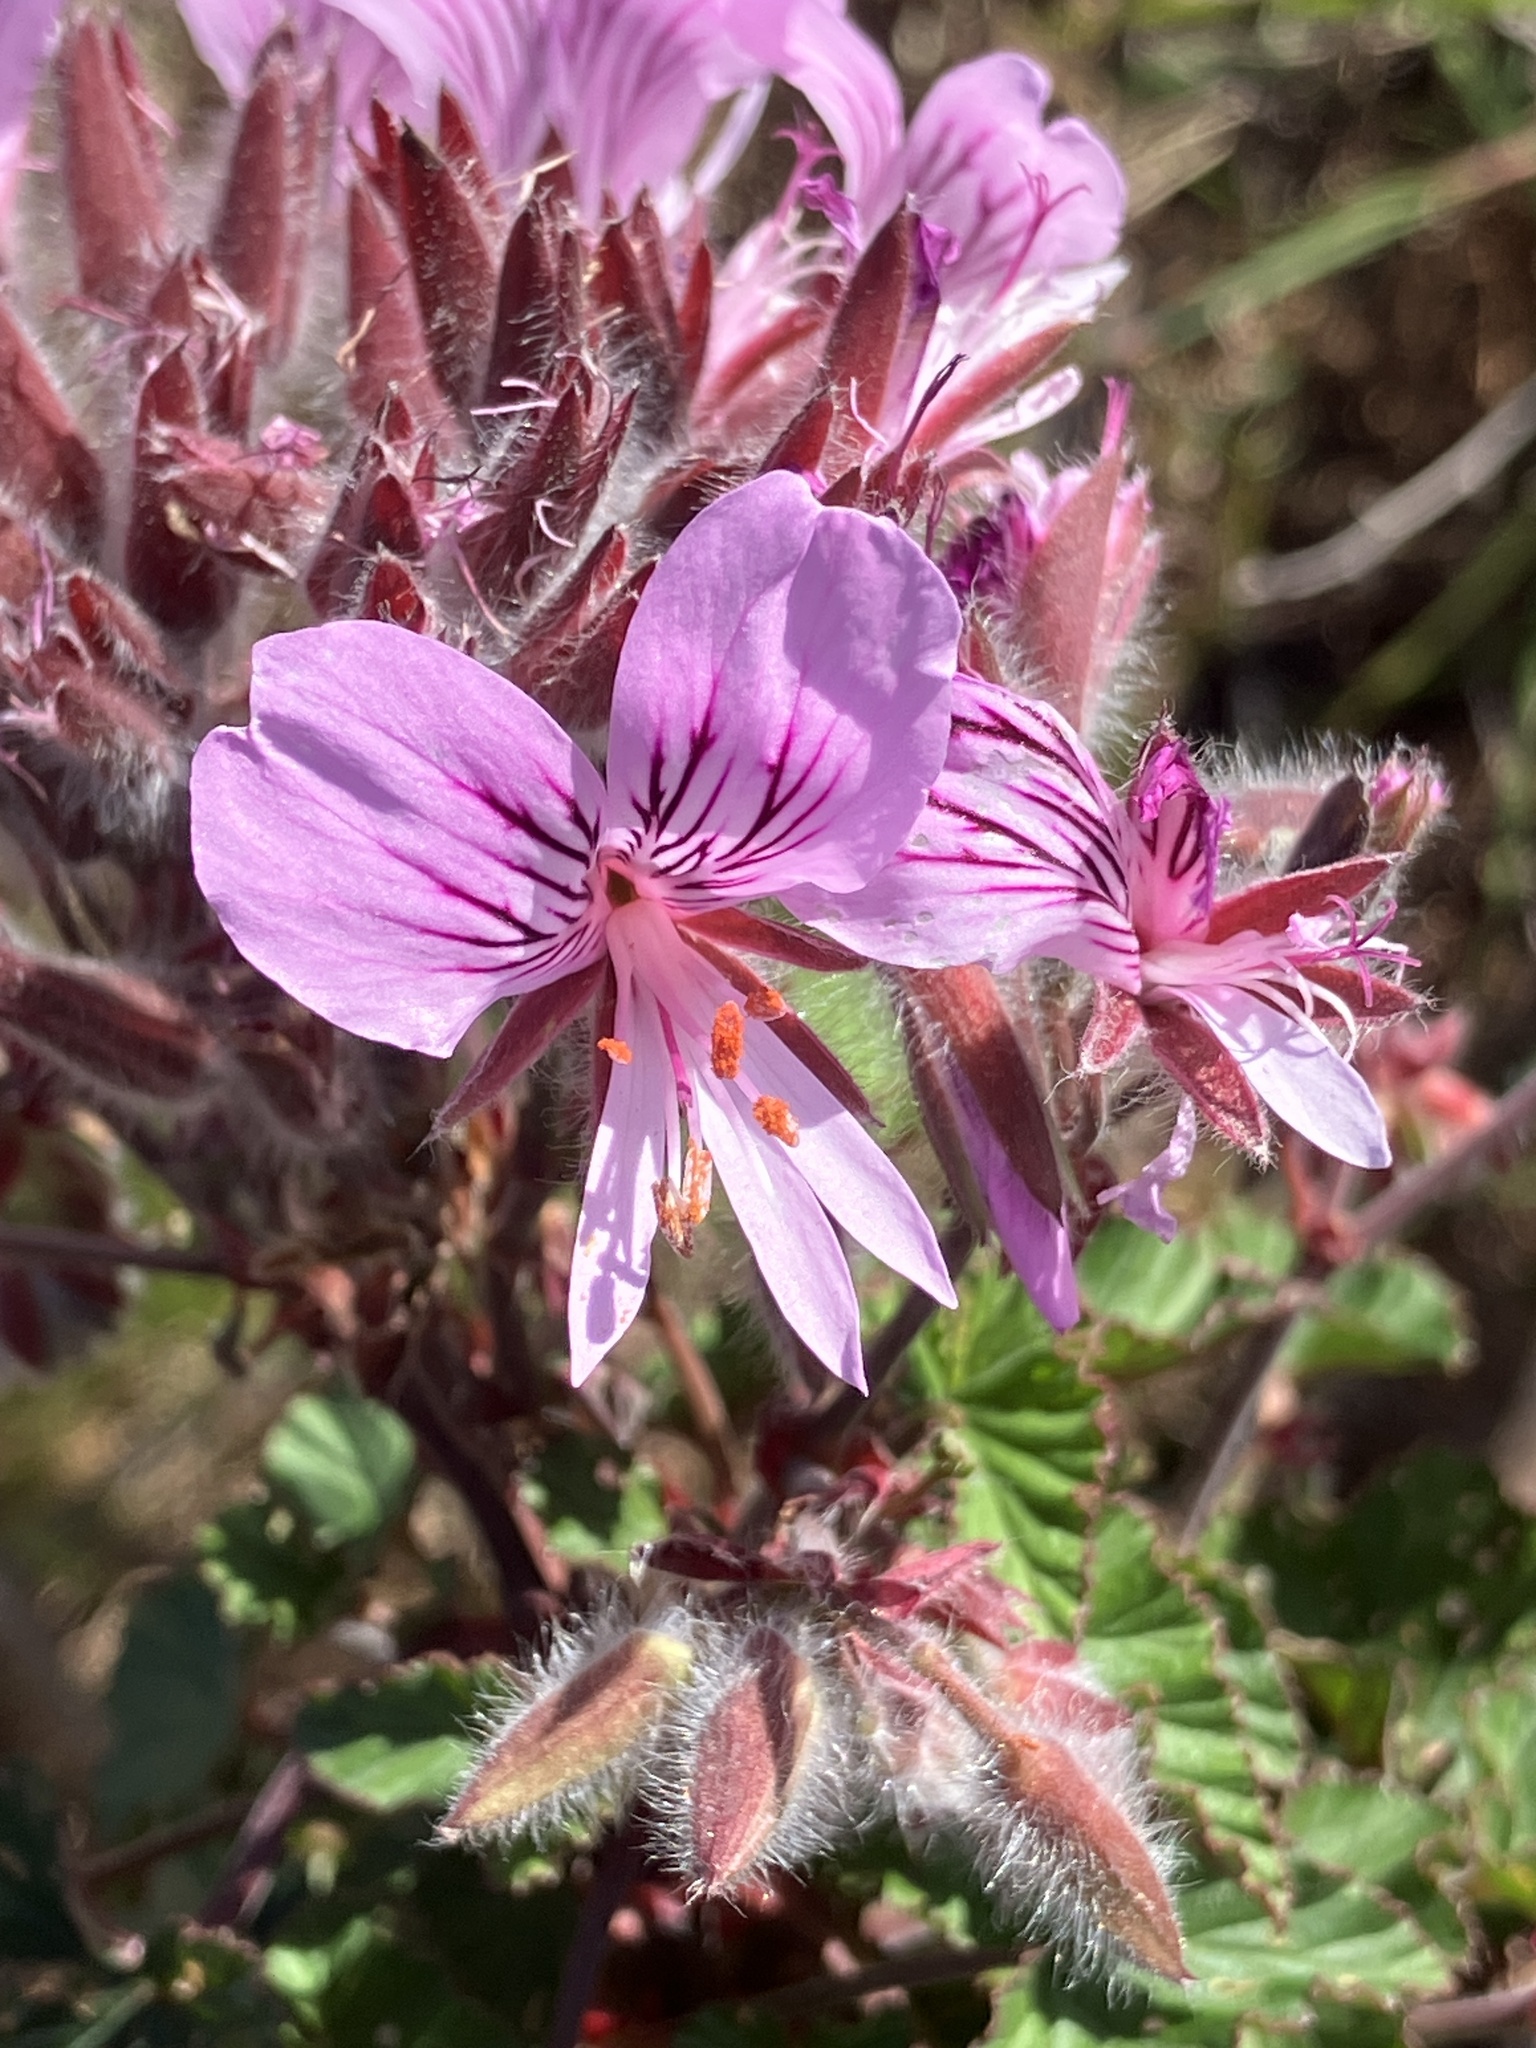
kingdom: Plantae
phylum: Tracheophyta
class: Magnoliopsida
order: Geraniales
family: Geraniaceae
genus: Pelargonium
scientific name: Pelargonium cordifolium
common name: Heart-leaf pelargonium
